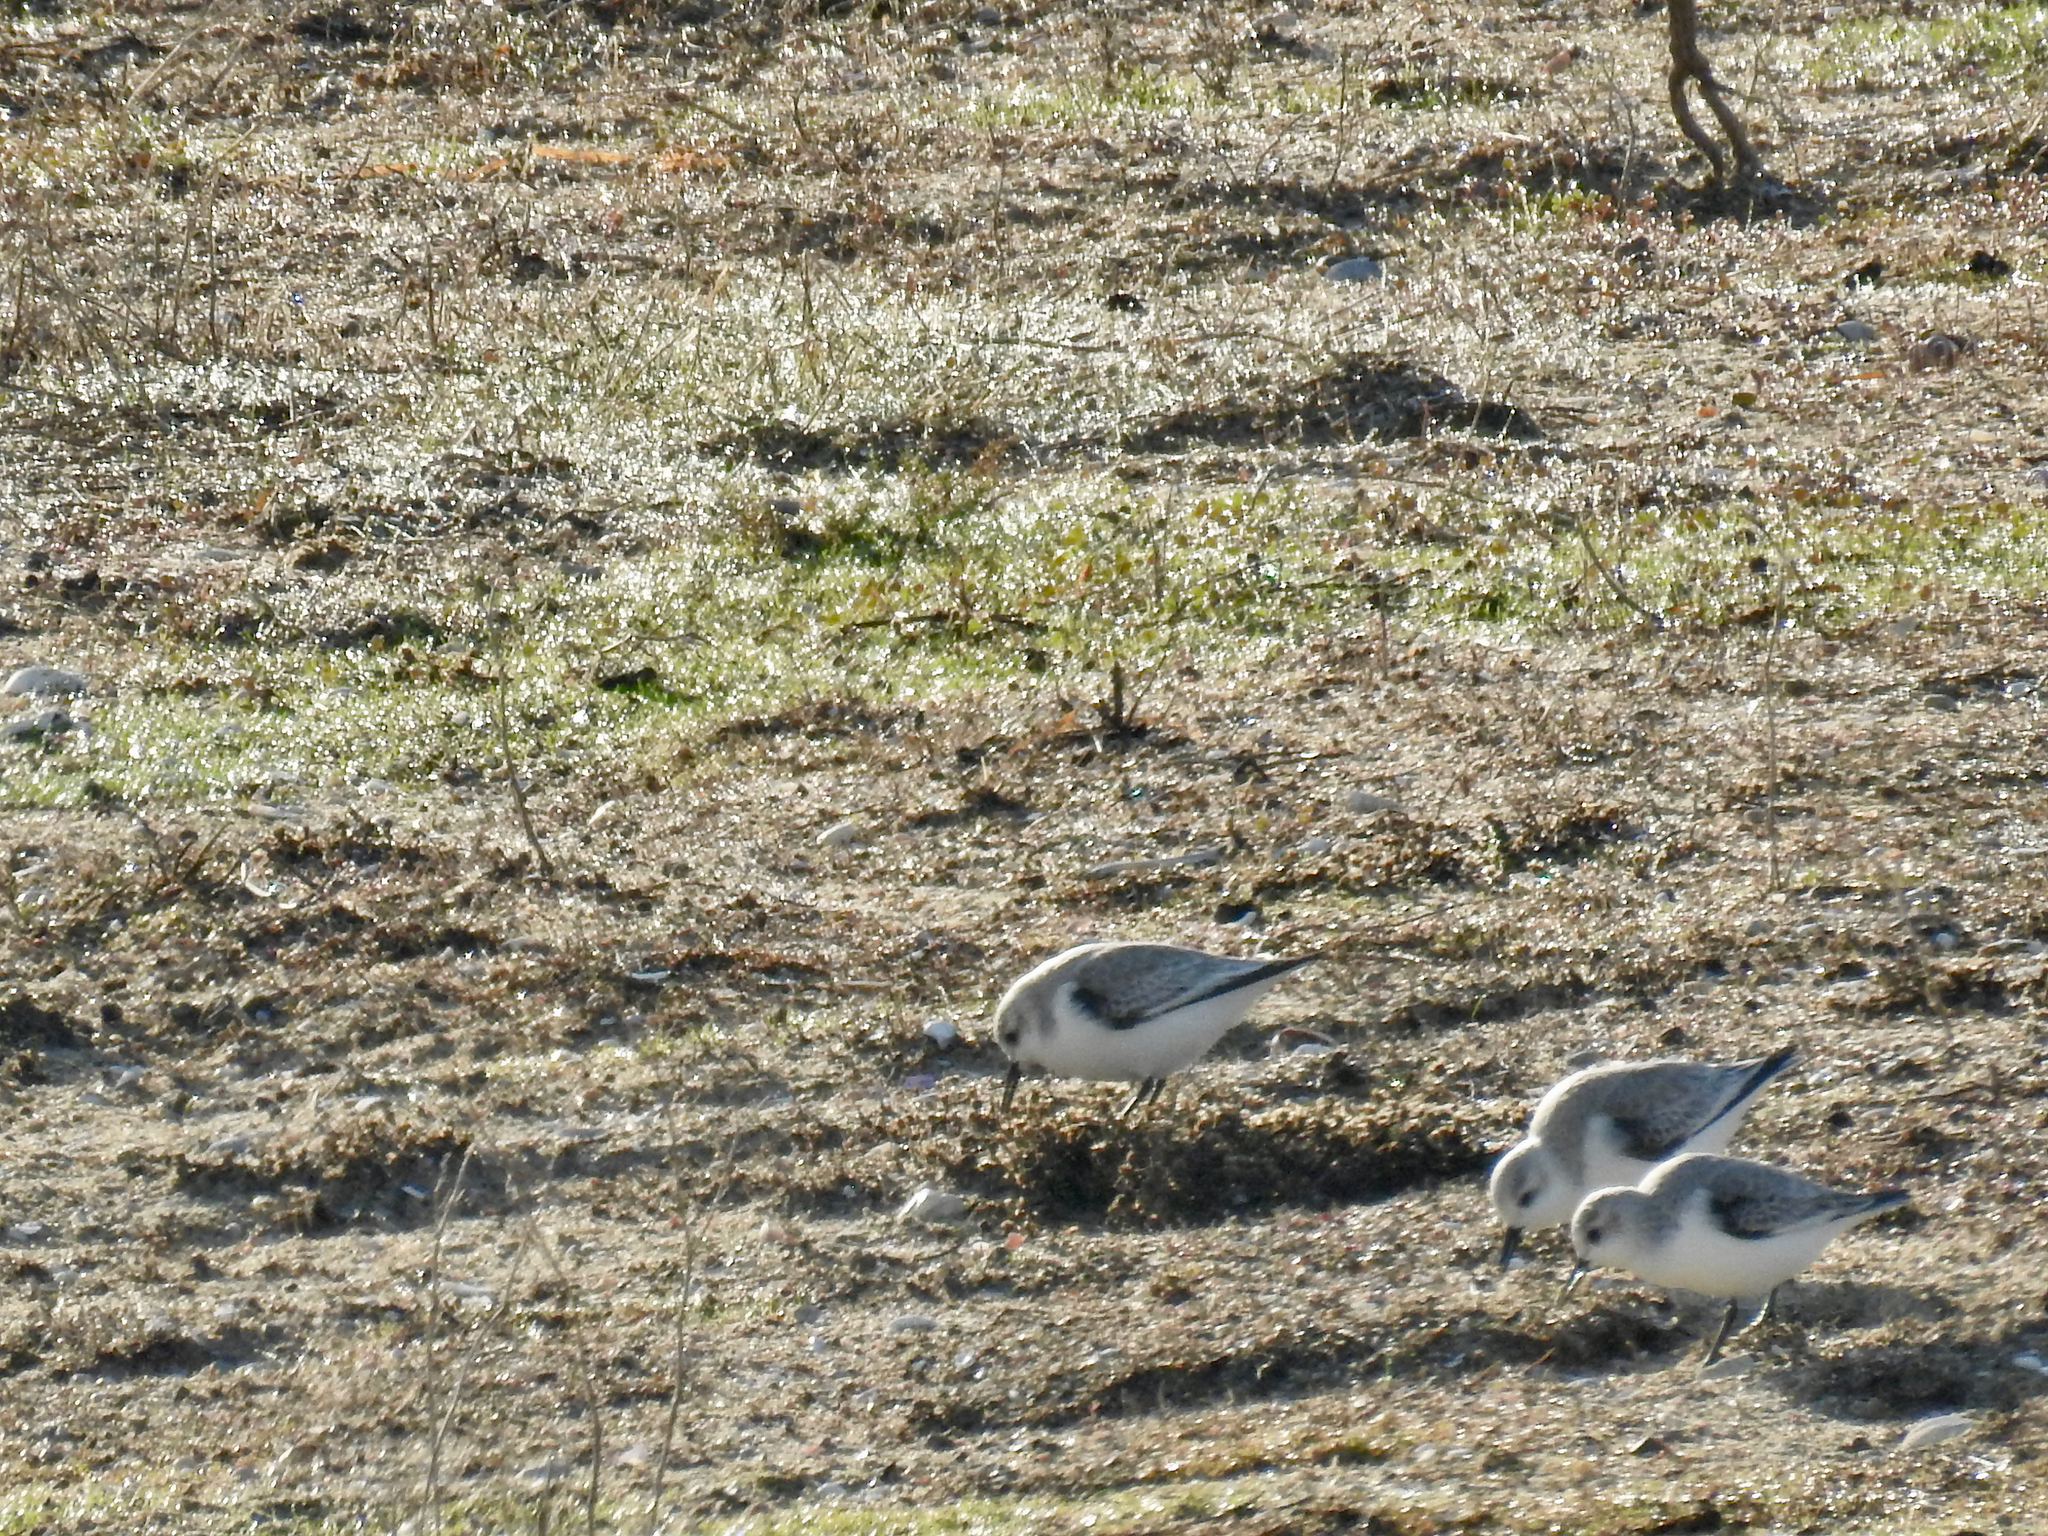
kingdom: Animalia
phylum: Chordata
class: Aves
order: Charadriiformes
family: Scolopacidae
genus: Calidris
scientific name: Calidris alba
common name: Sanderling
